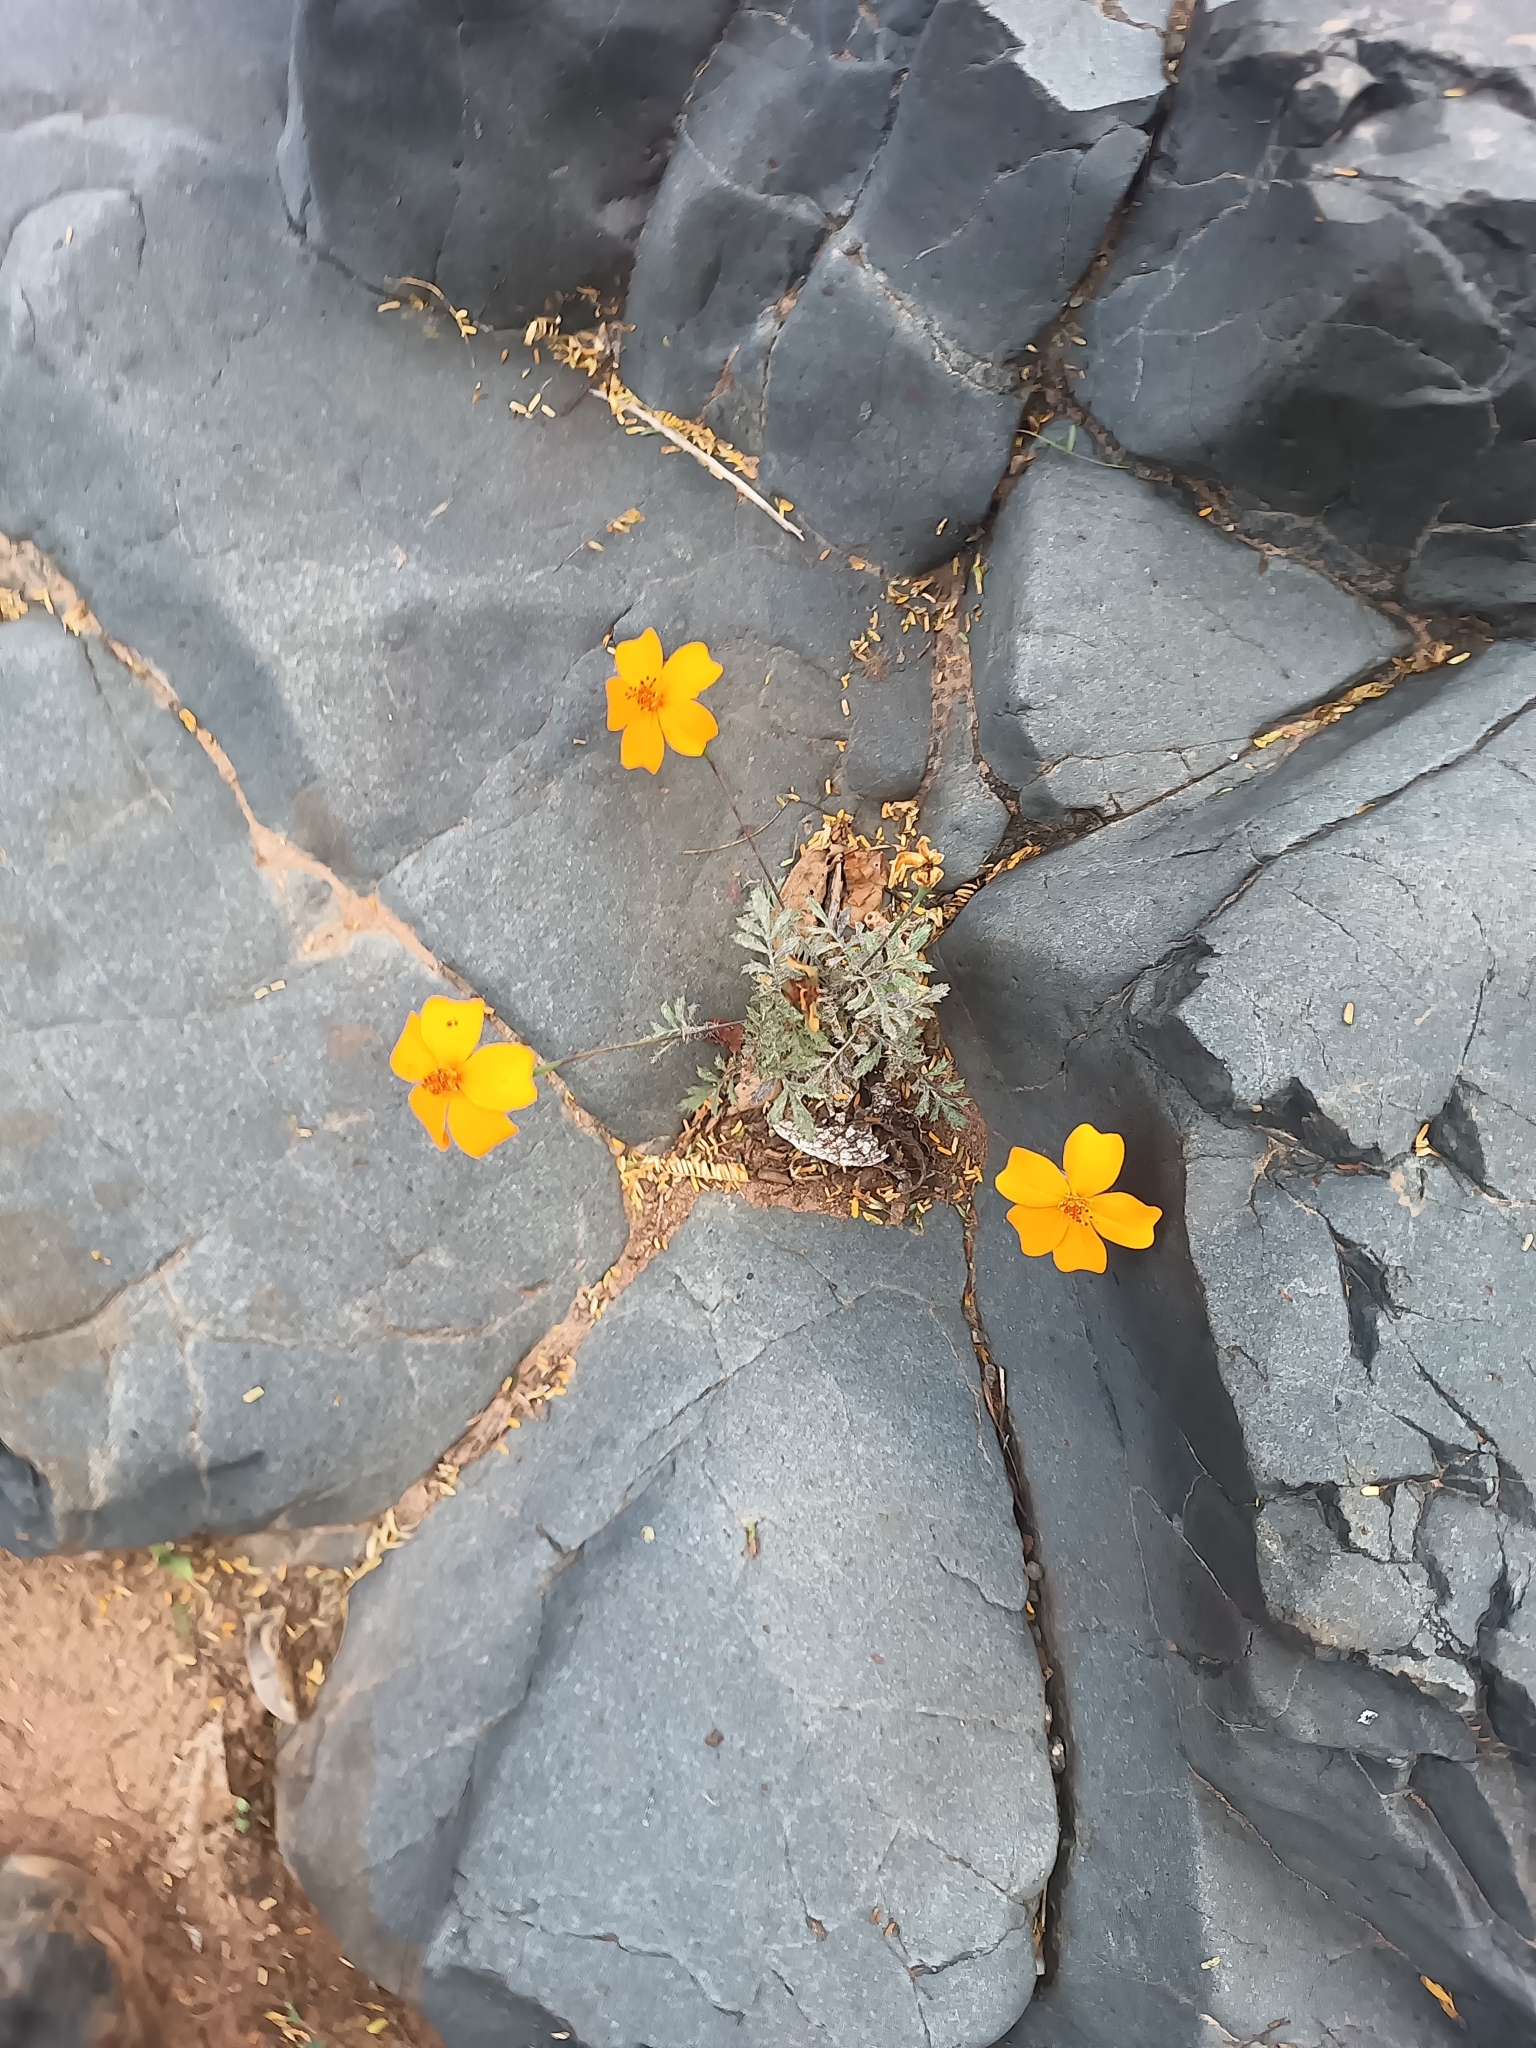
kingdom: Plantae
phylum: Tracheophyta
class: Magnoliopsida
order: Asterales
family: Asteraceae
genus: Tagetes
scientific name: Tagetes erecta
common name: African marigold
